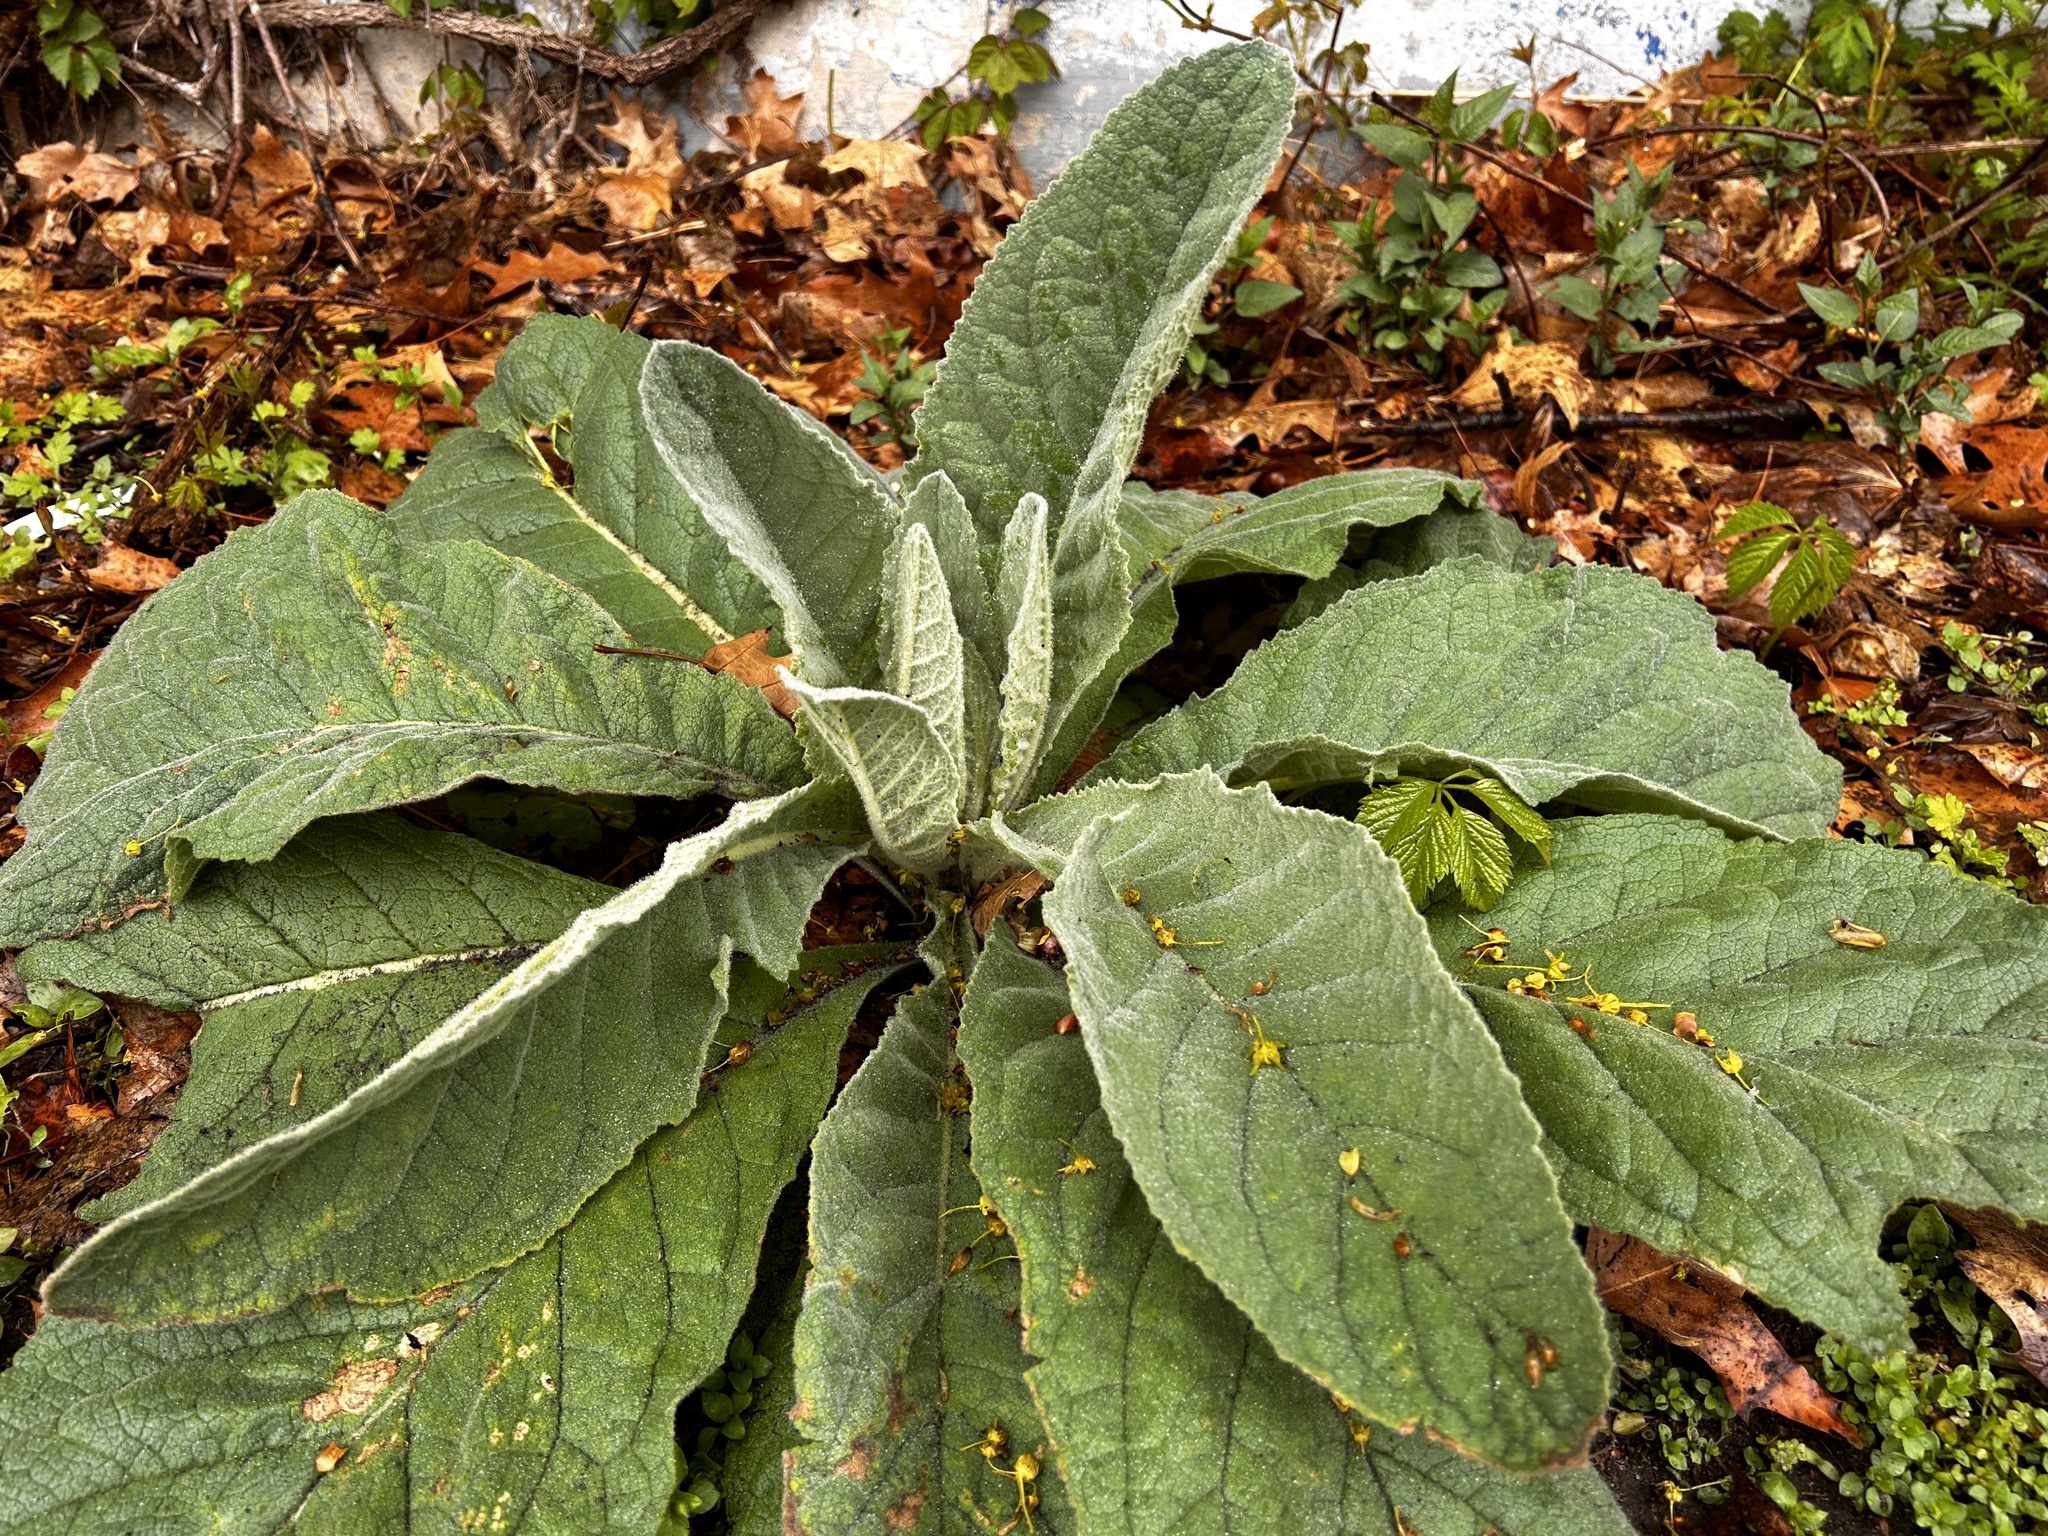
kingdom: Plantae
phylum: Tracheophyta
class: Magnoliopsida
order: Lamiales
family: Scrophulariaceae
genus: Verbascum
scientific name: Verbascum thapsus
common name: Common mullein
